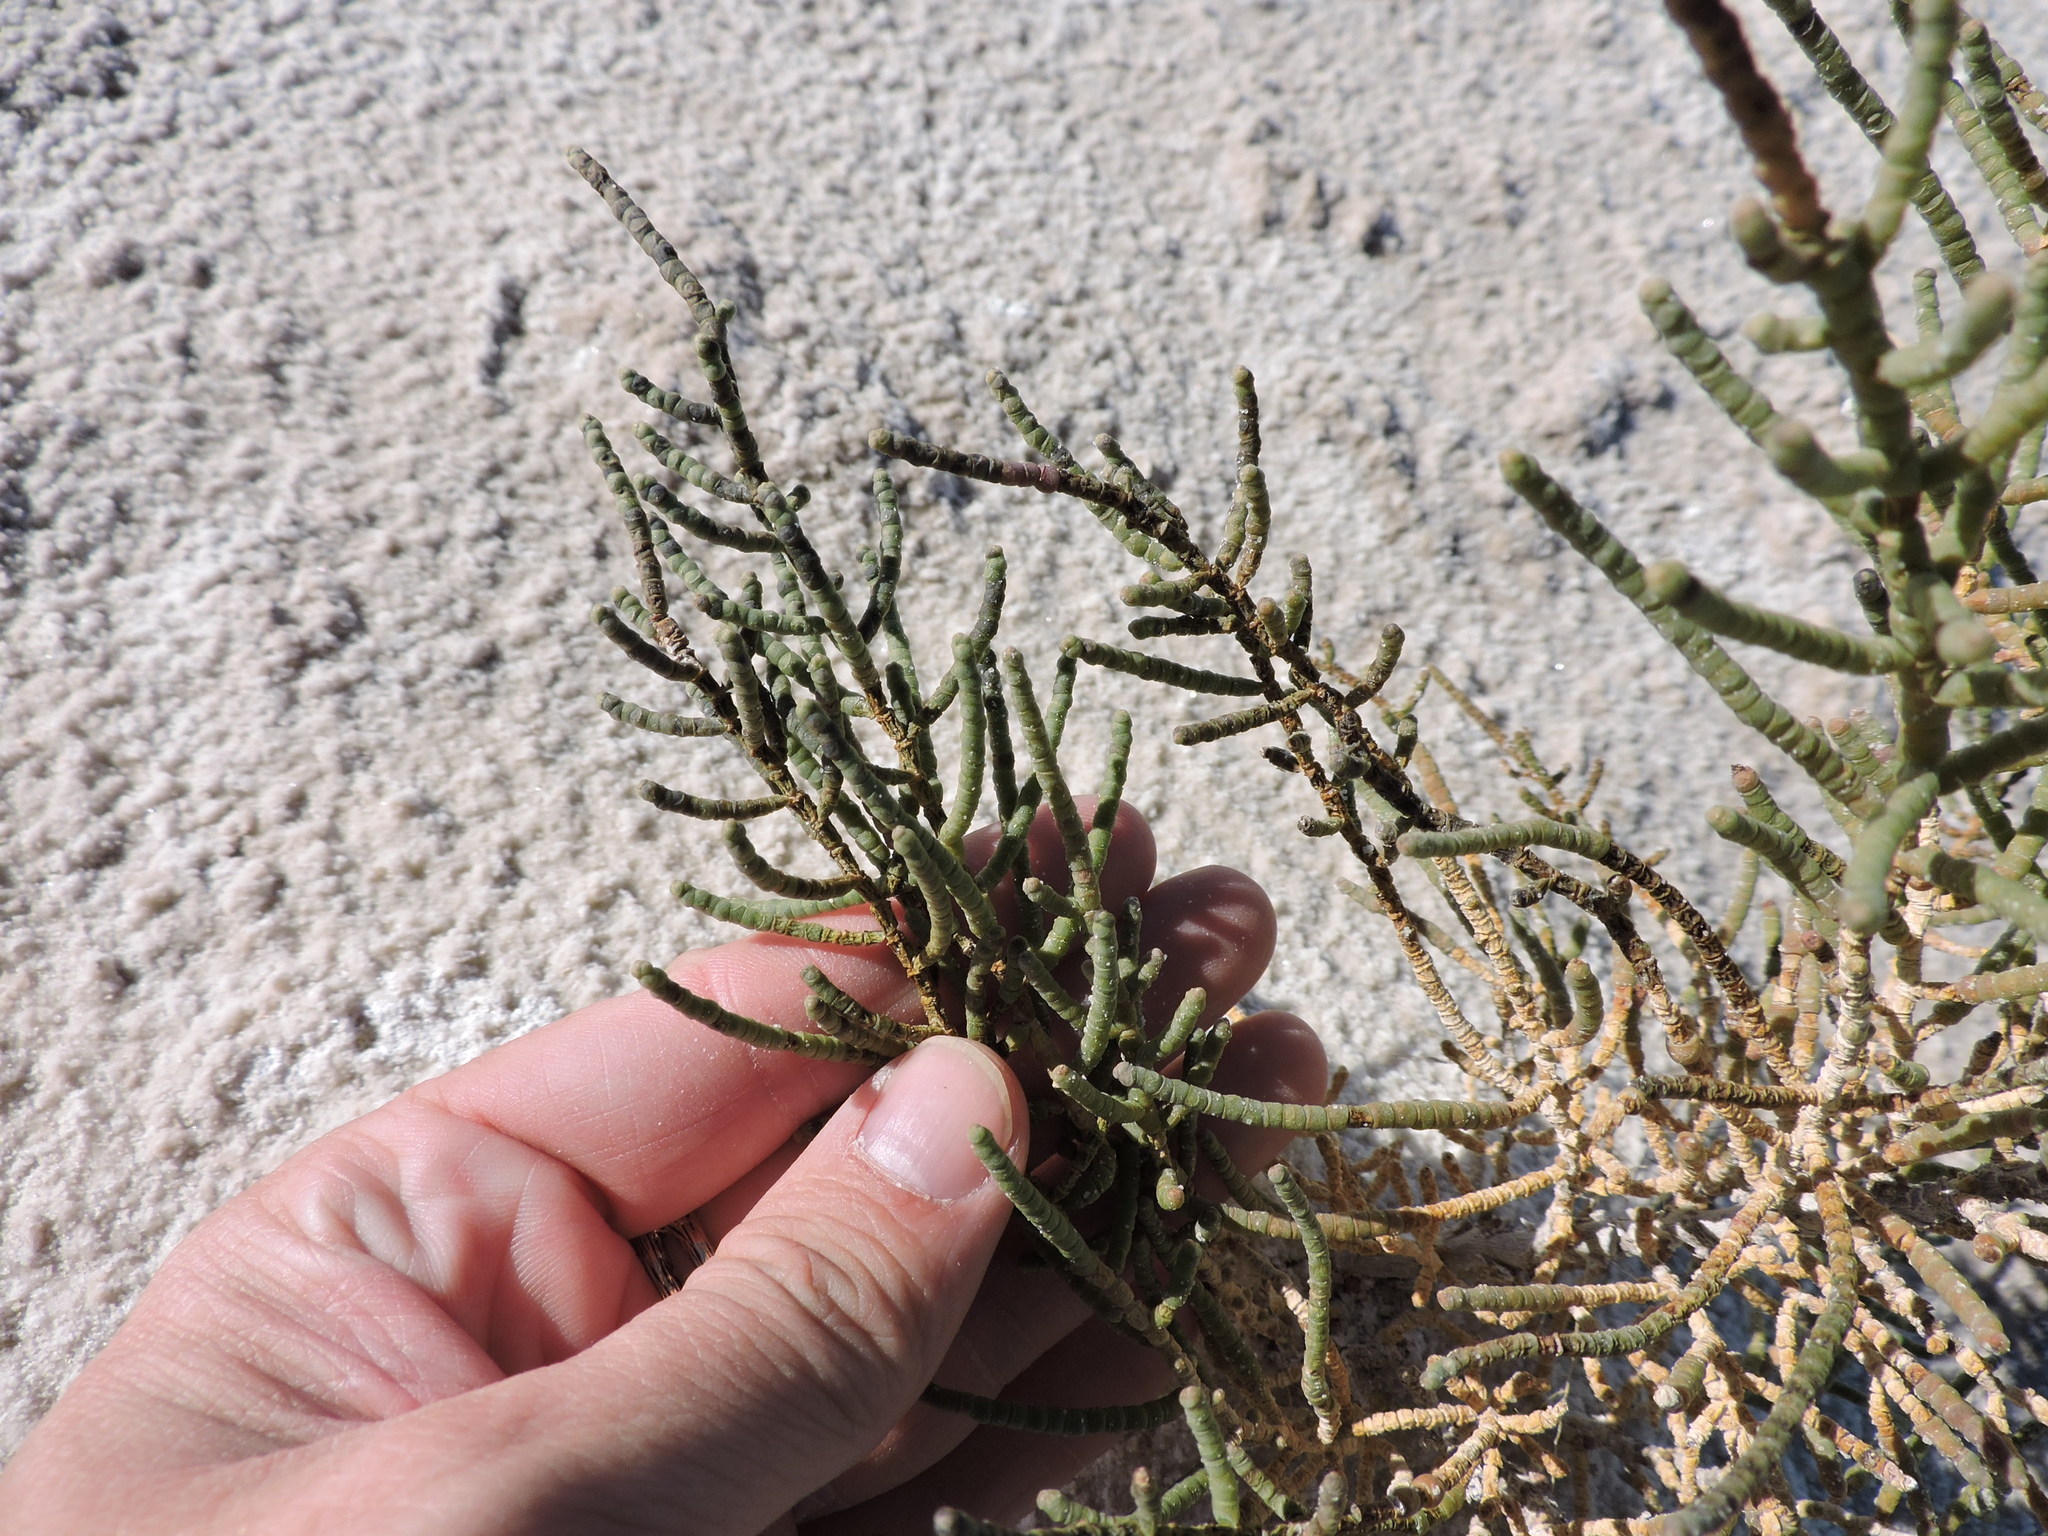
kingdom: Plantae
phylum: Tracheophyta
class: Magnoliopsida
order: Caryophyllales
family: Amaranthaceae
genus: Allenrolfea
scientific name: Allenrolfea occidentalis
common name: Iodine-bush
